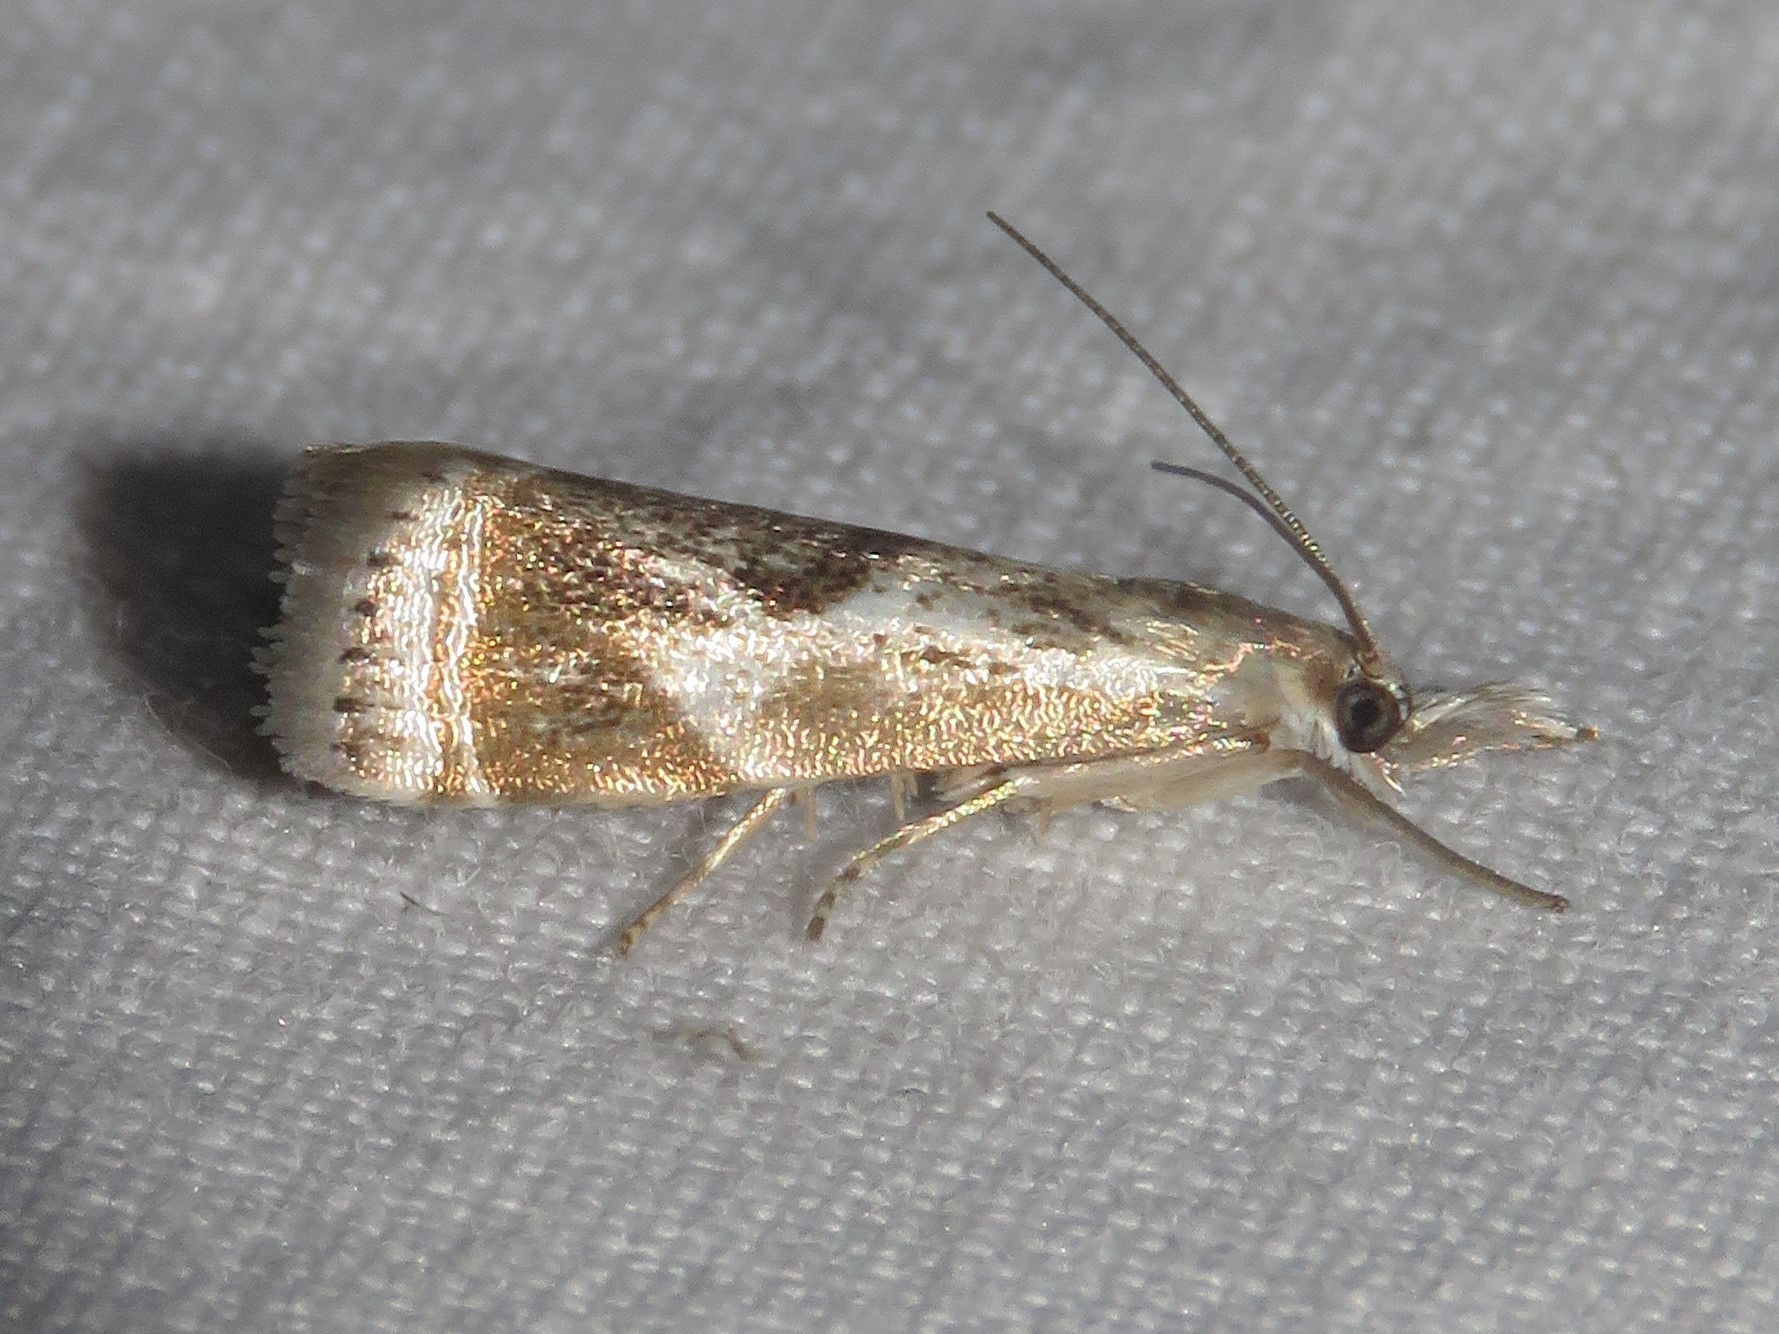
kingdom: Animalia
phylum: Arthropoda
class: Insecta
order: Lepidoptera
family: Crambidae
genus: Microcrambus
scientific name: Microcrambus elegans
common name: Elegant grass-veneer
